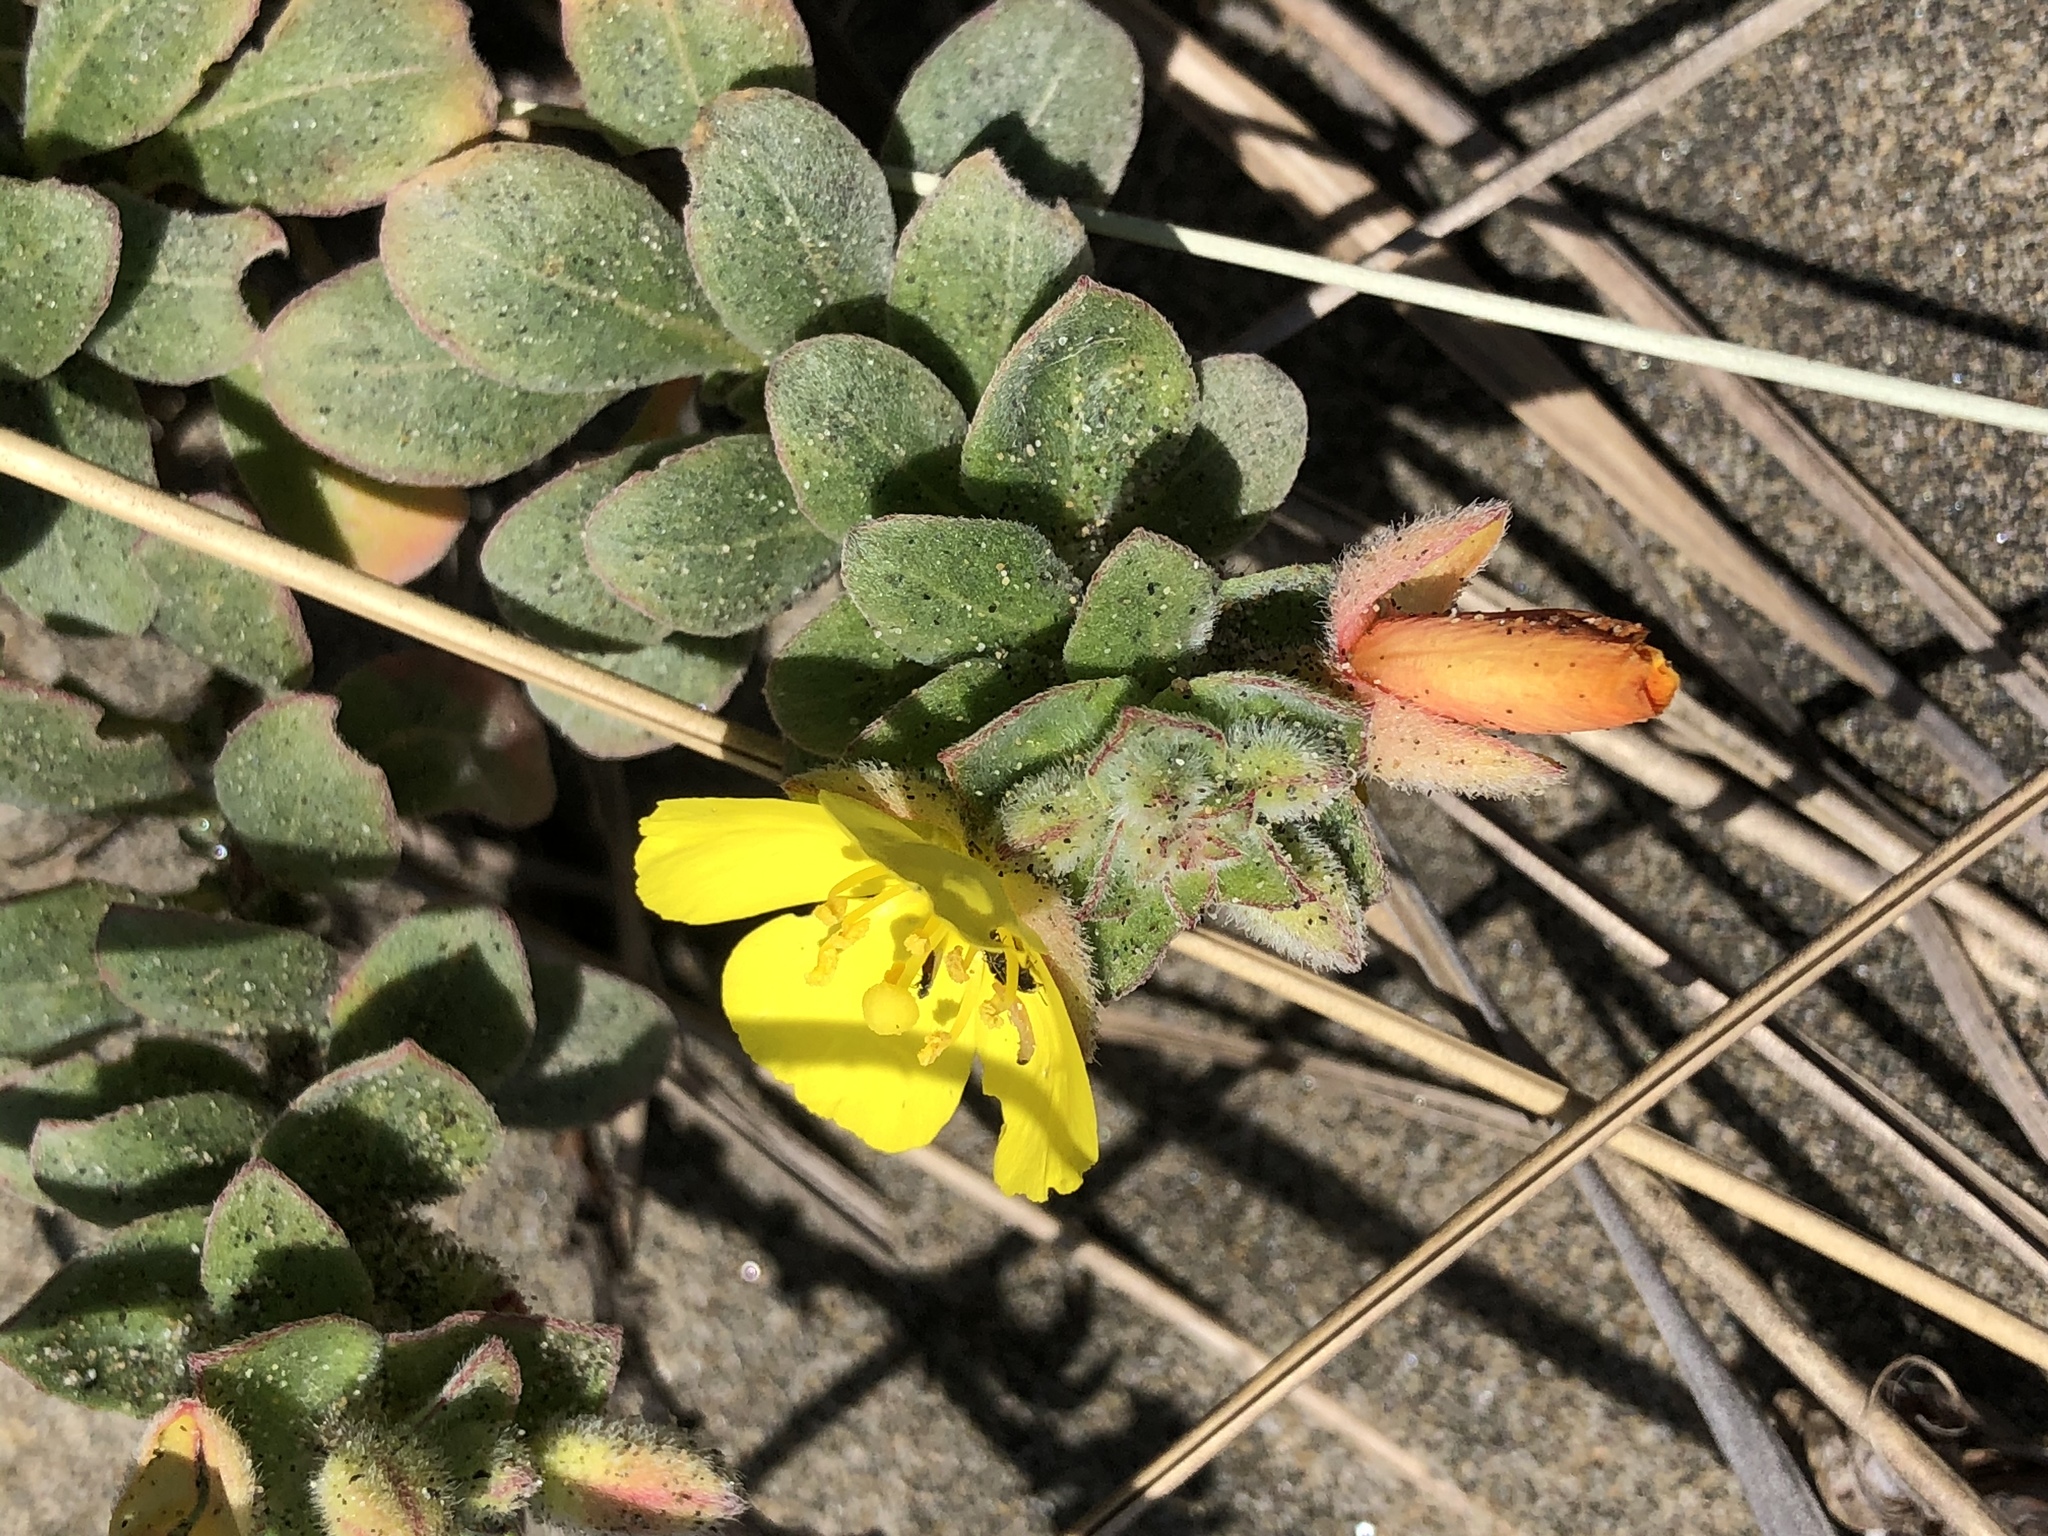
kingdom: Plantae
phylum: Tracheophyta
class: Magnoliopsida
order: Myrtales
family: Onagraceae
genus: Camissoniopsis
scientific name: Camissoniopsis cheiranthifolia
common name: Beach suncup
